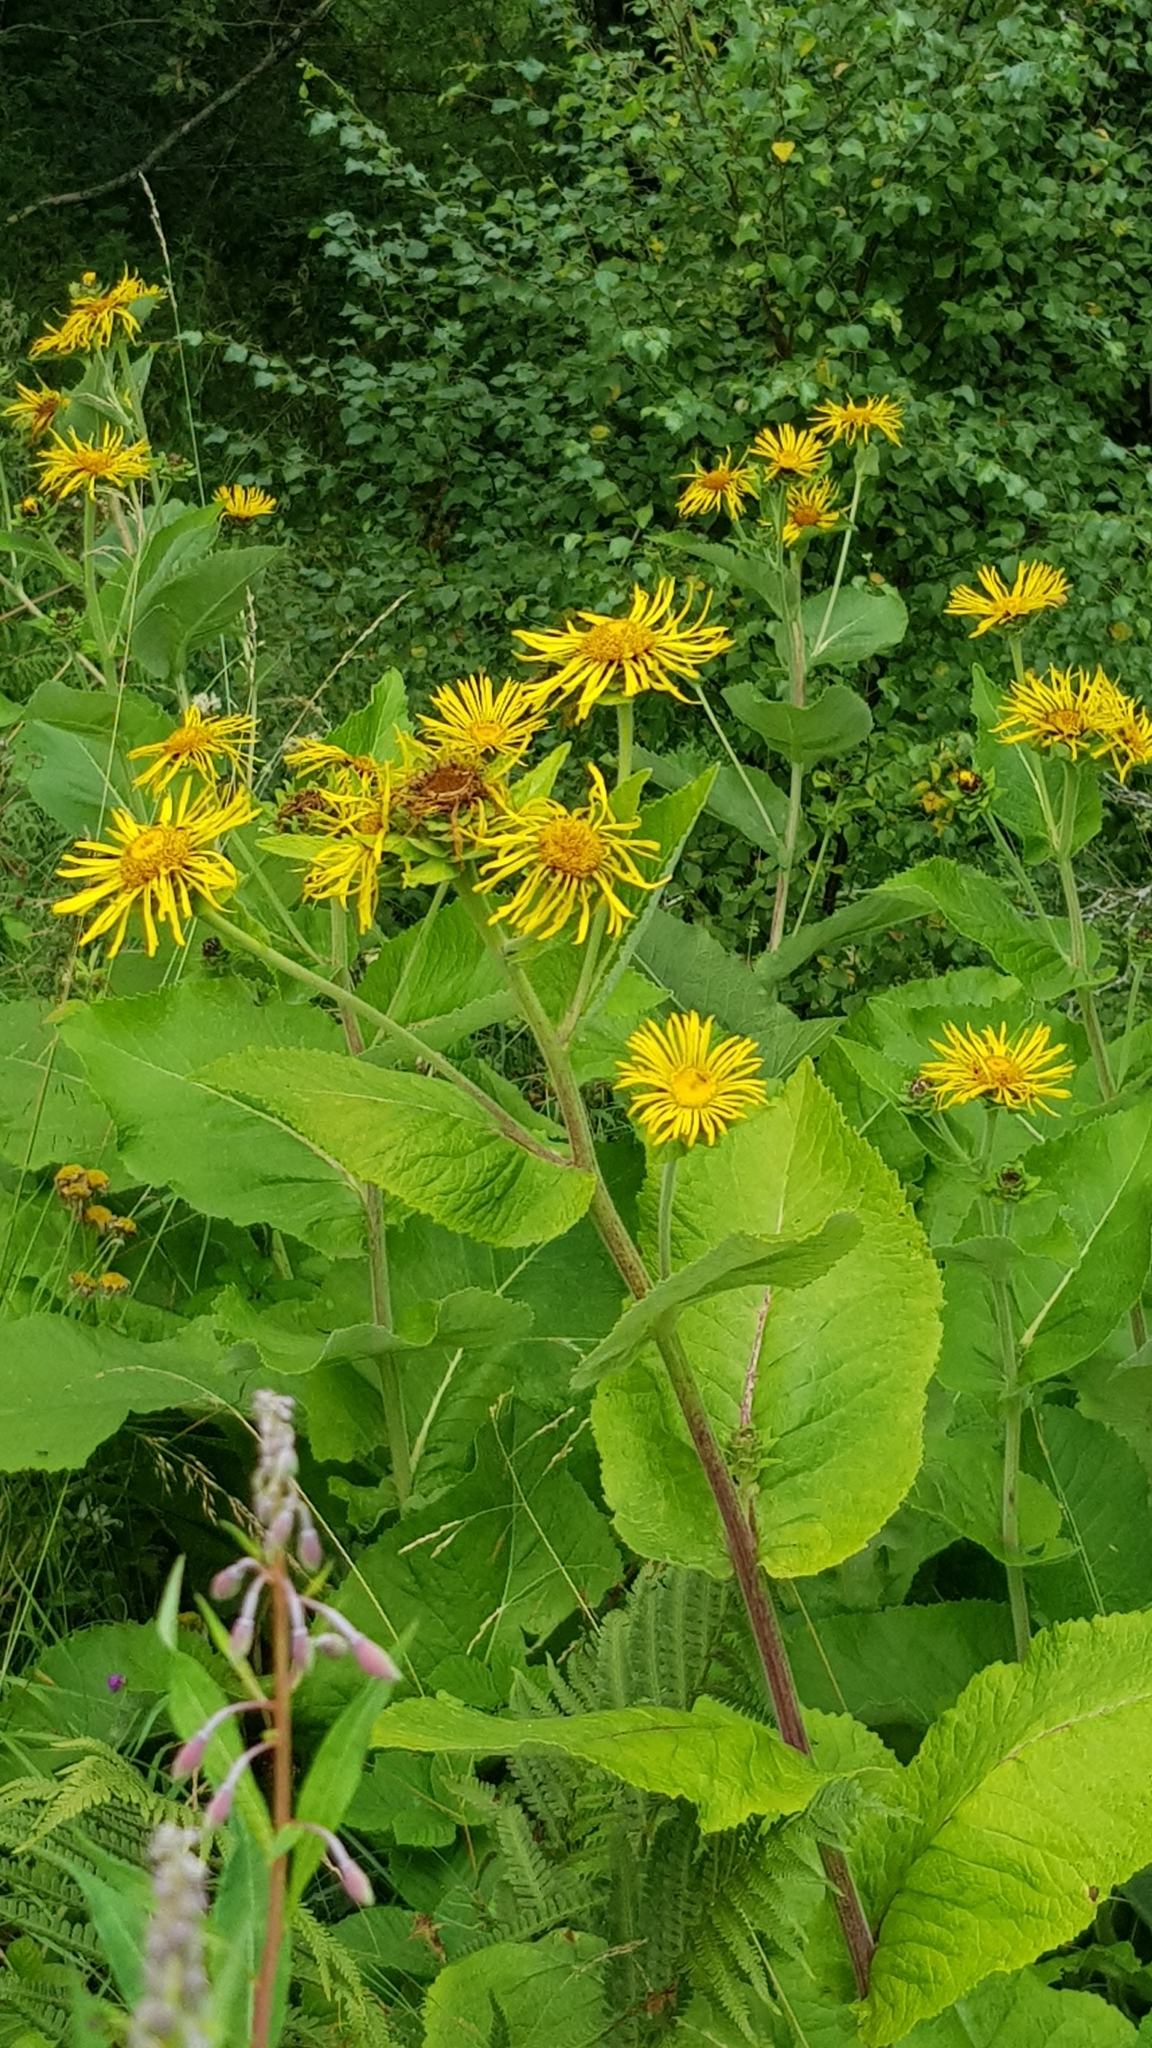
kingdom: Plantae
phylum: Tracheophyta
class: Magnoliopsida
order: Asterales
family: Asteraceae
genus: Inula
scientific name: Inula helenium
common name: Elecampane
